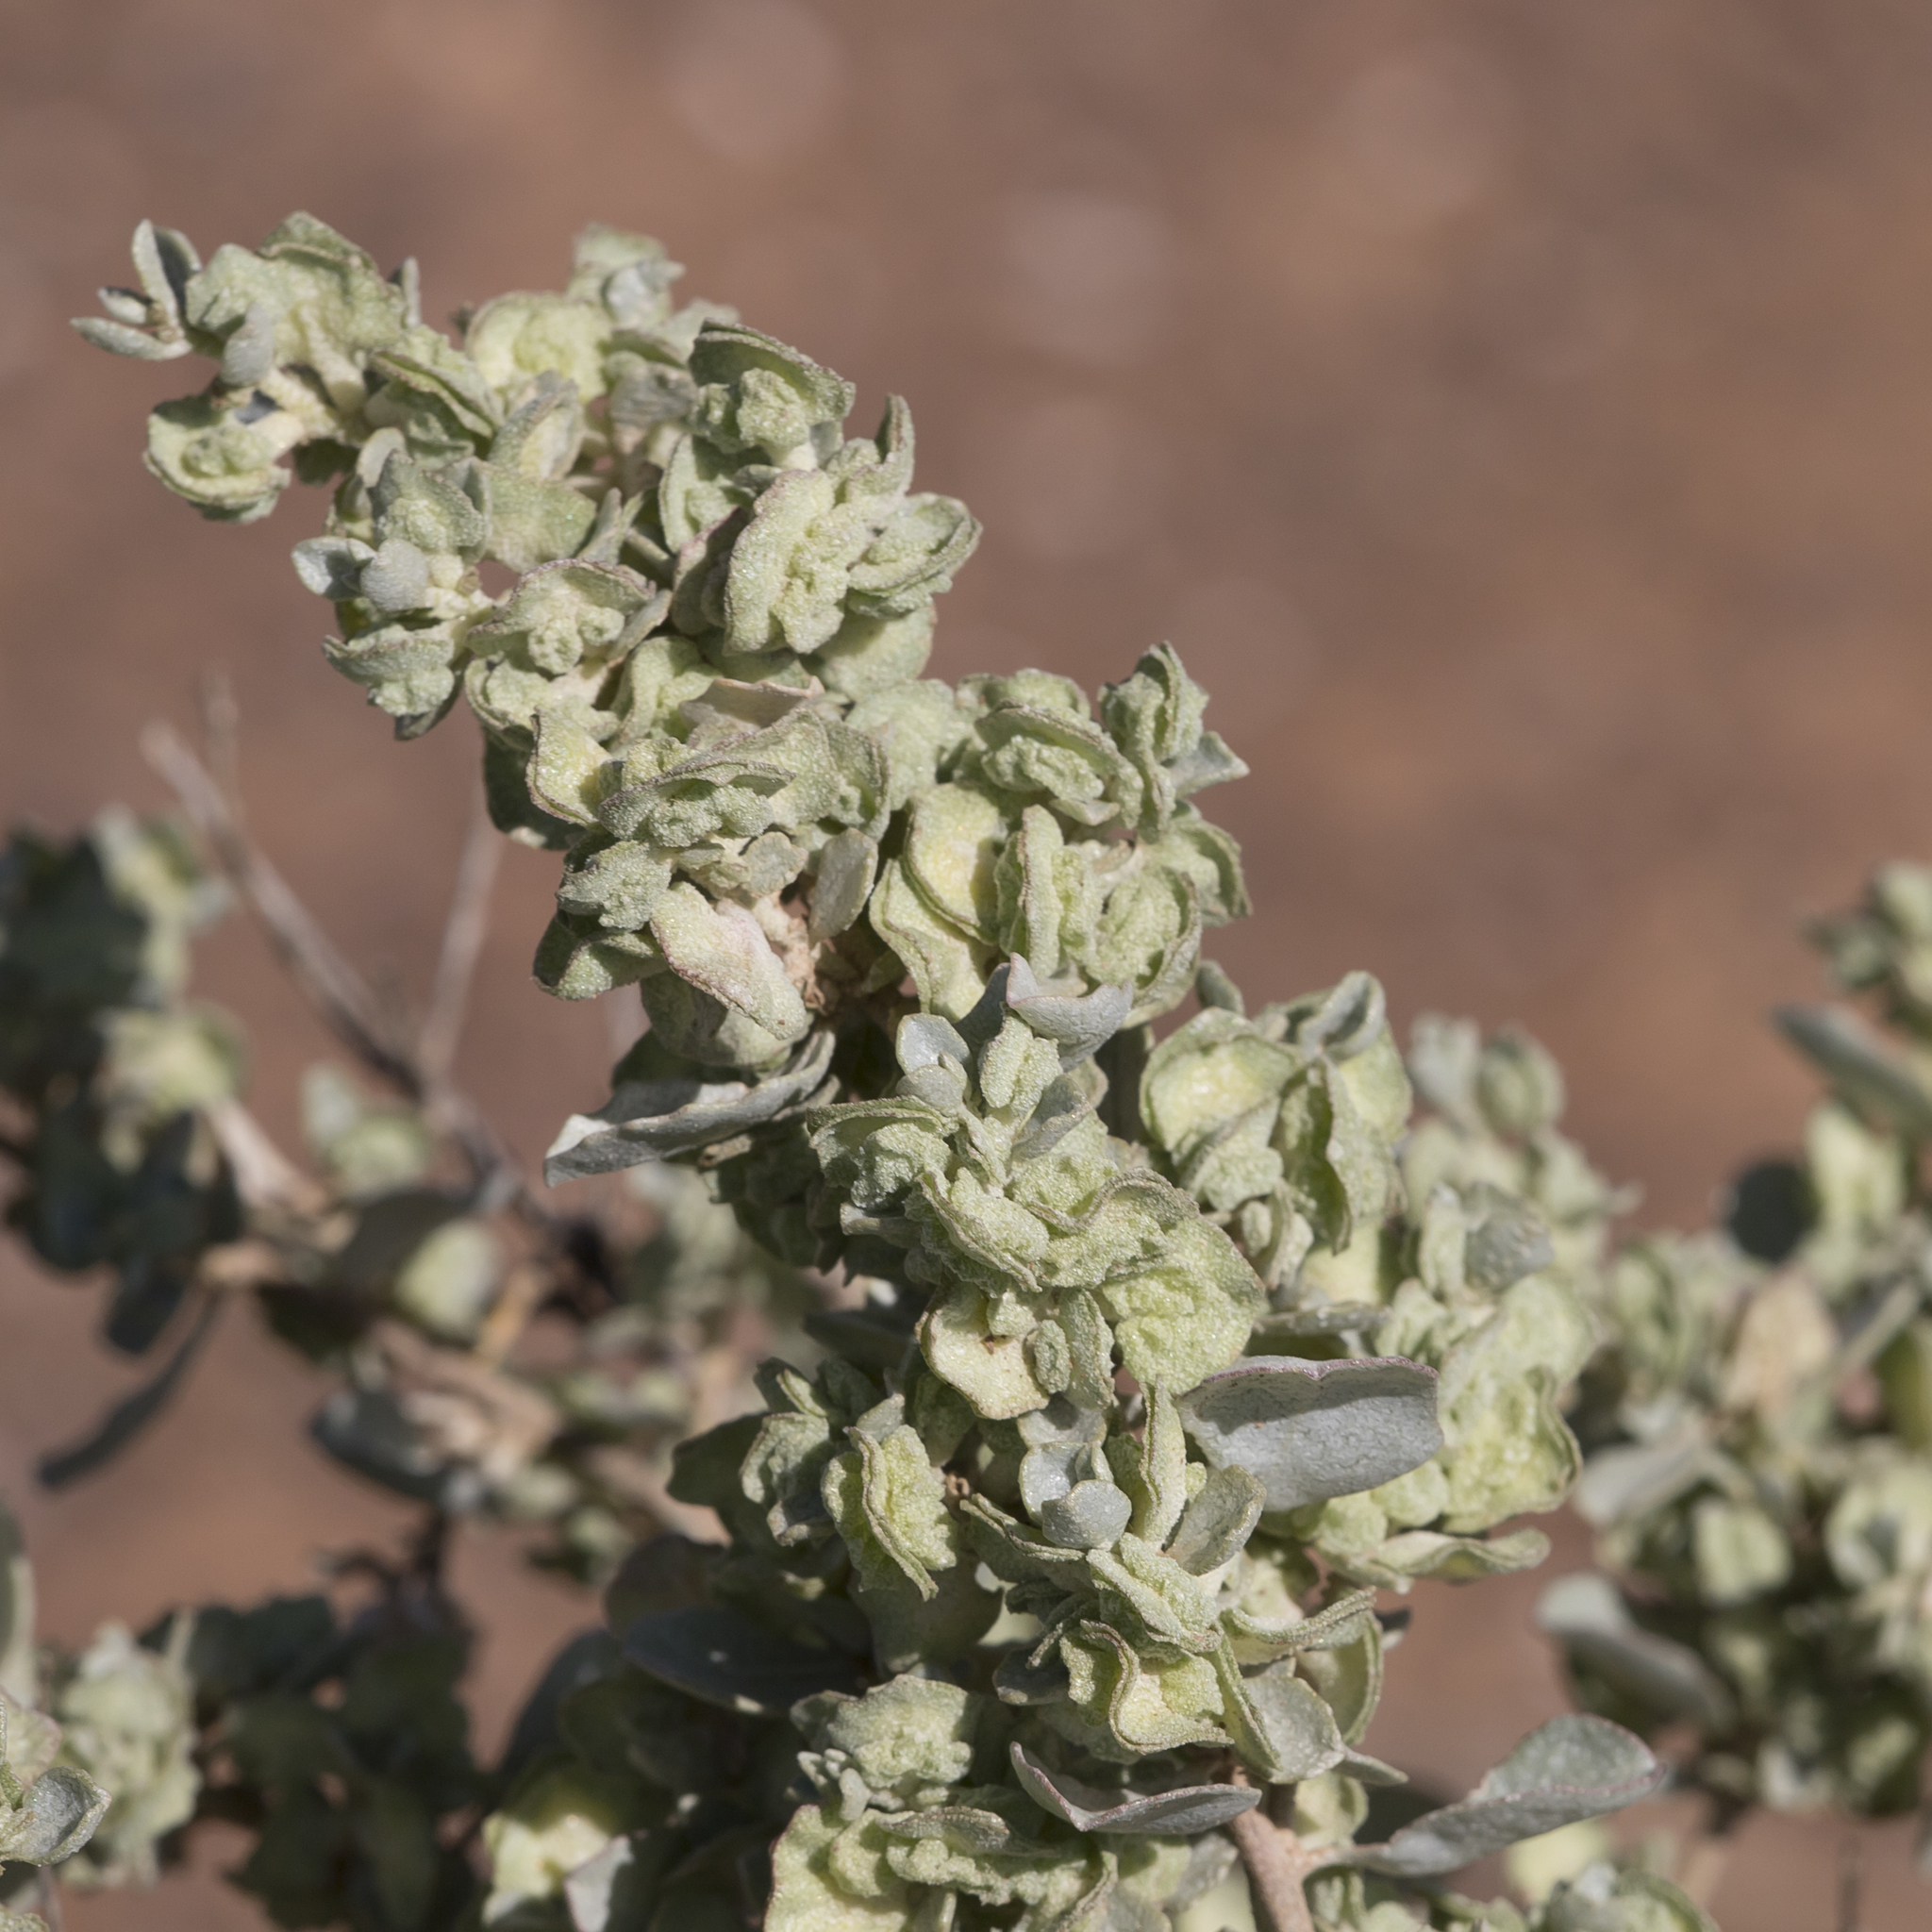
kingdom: Plantae
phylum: Tracheophyta
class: Magnoliopsida
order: Caryophyllales
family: Amaranthaceae
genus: Atriplex
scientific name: Atriplex vesicaria
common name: Aboriginal saltbush
